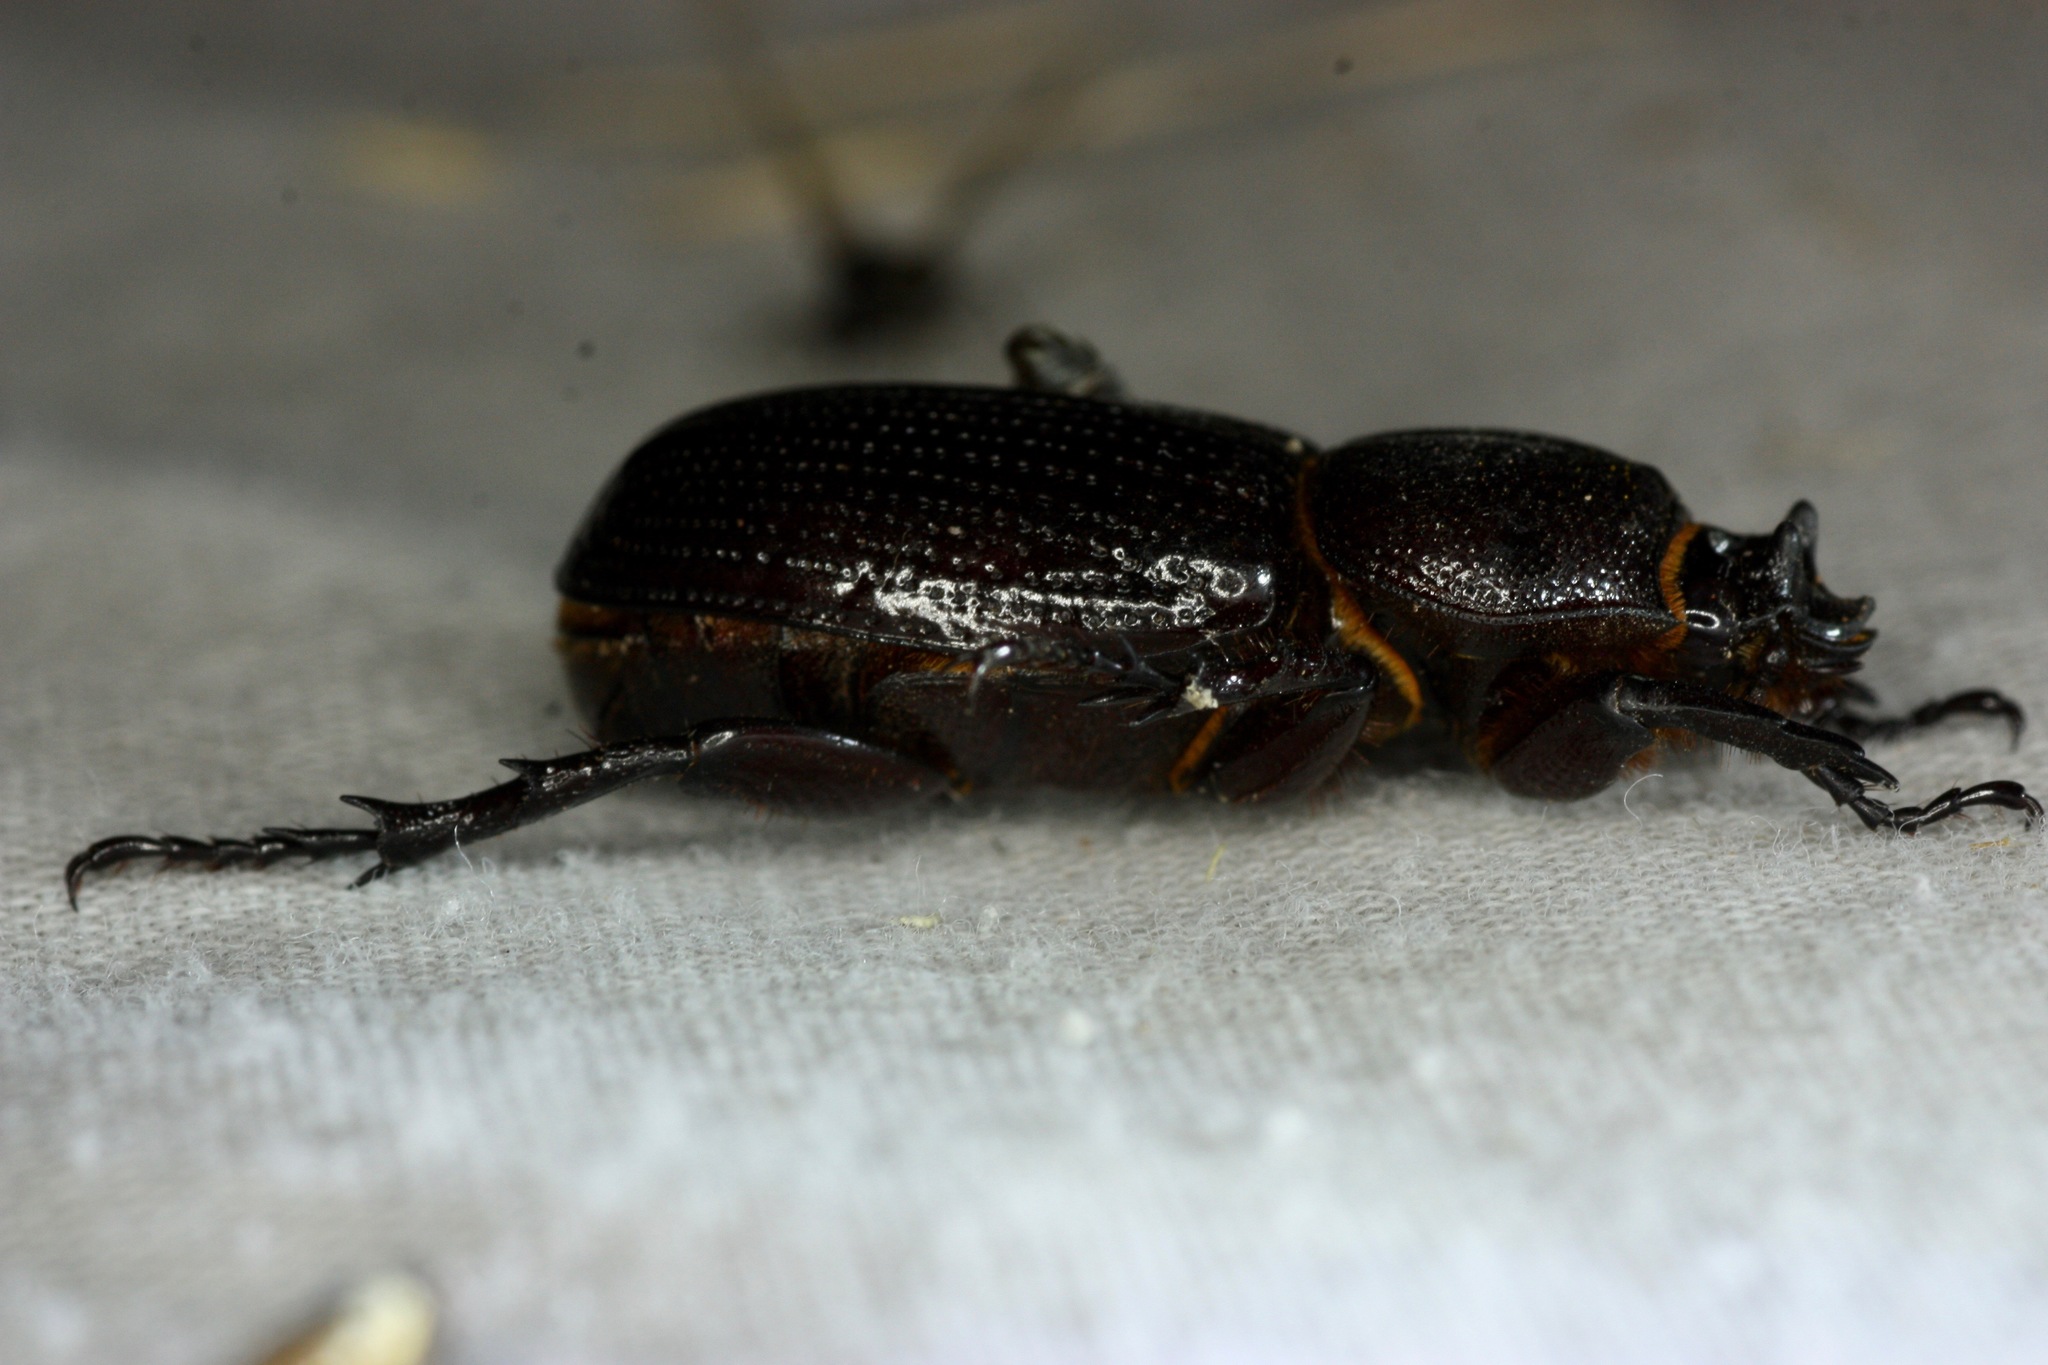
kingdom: Animalia
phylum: Arthropoda
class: Insecta
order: Coleoptera
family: Scarabaeidae
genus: Hemiphileurus
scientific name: Hemiphileurus illatus
